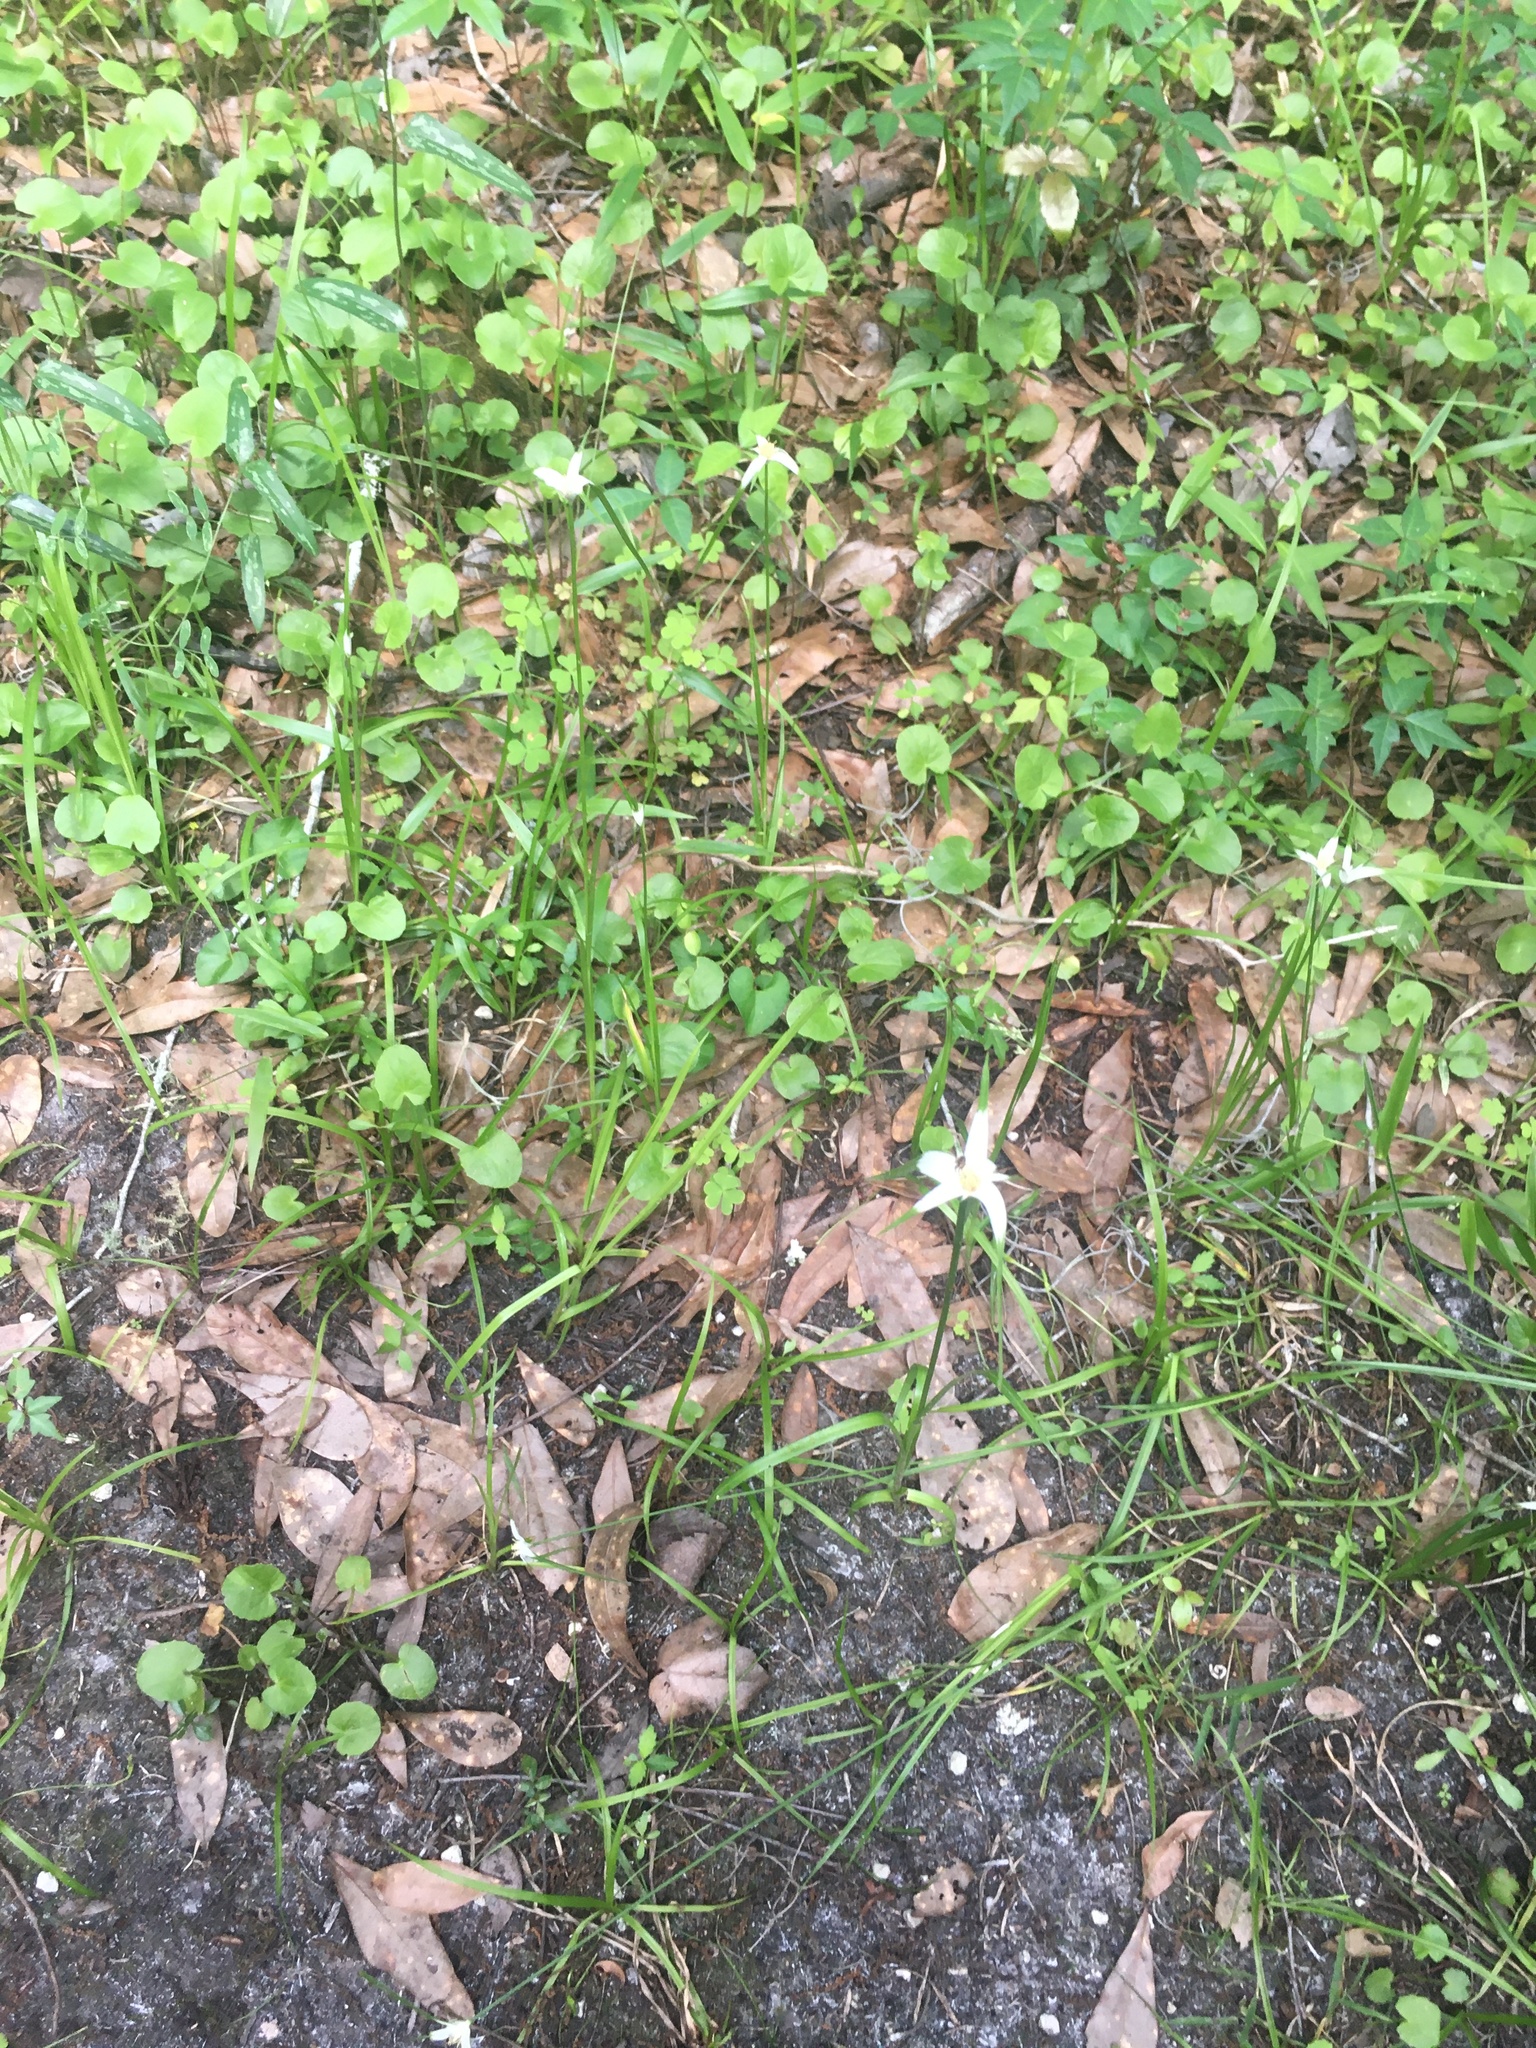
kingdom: Plantae
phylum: Tracheophyta
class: Liliopsida
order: Poales
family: Cyperaceae
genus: Rhynchospora
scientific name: Rhynchospora colorata
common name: Star sedge
